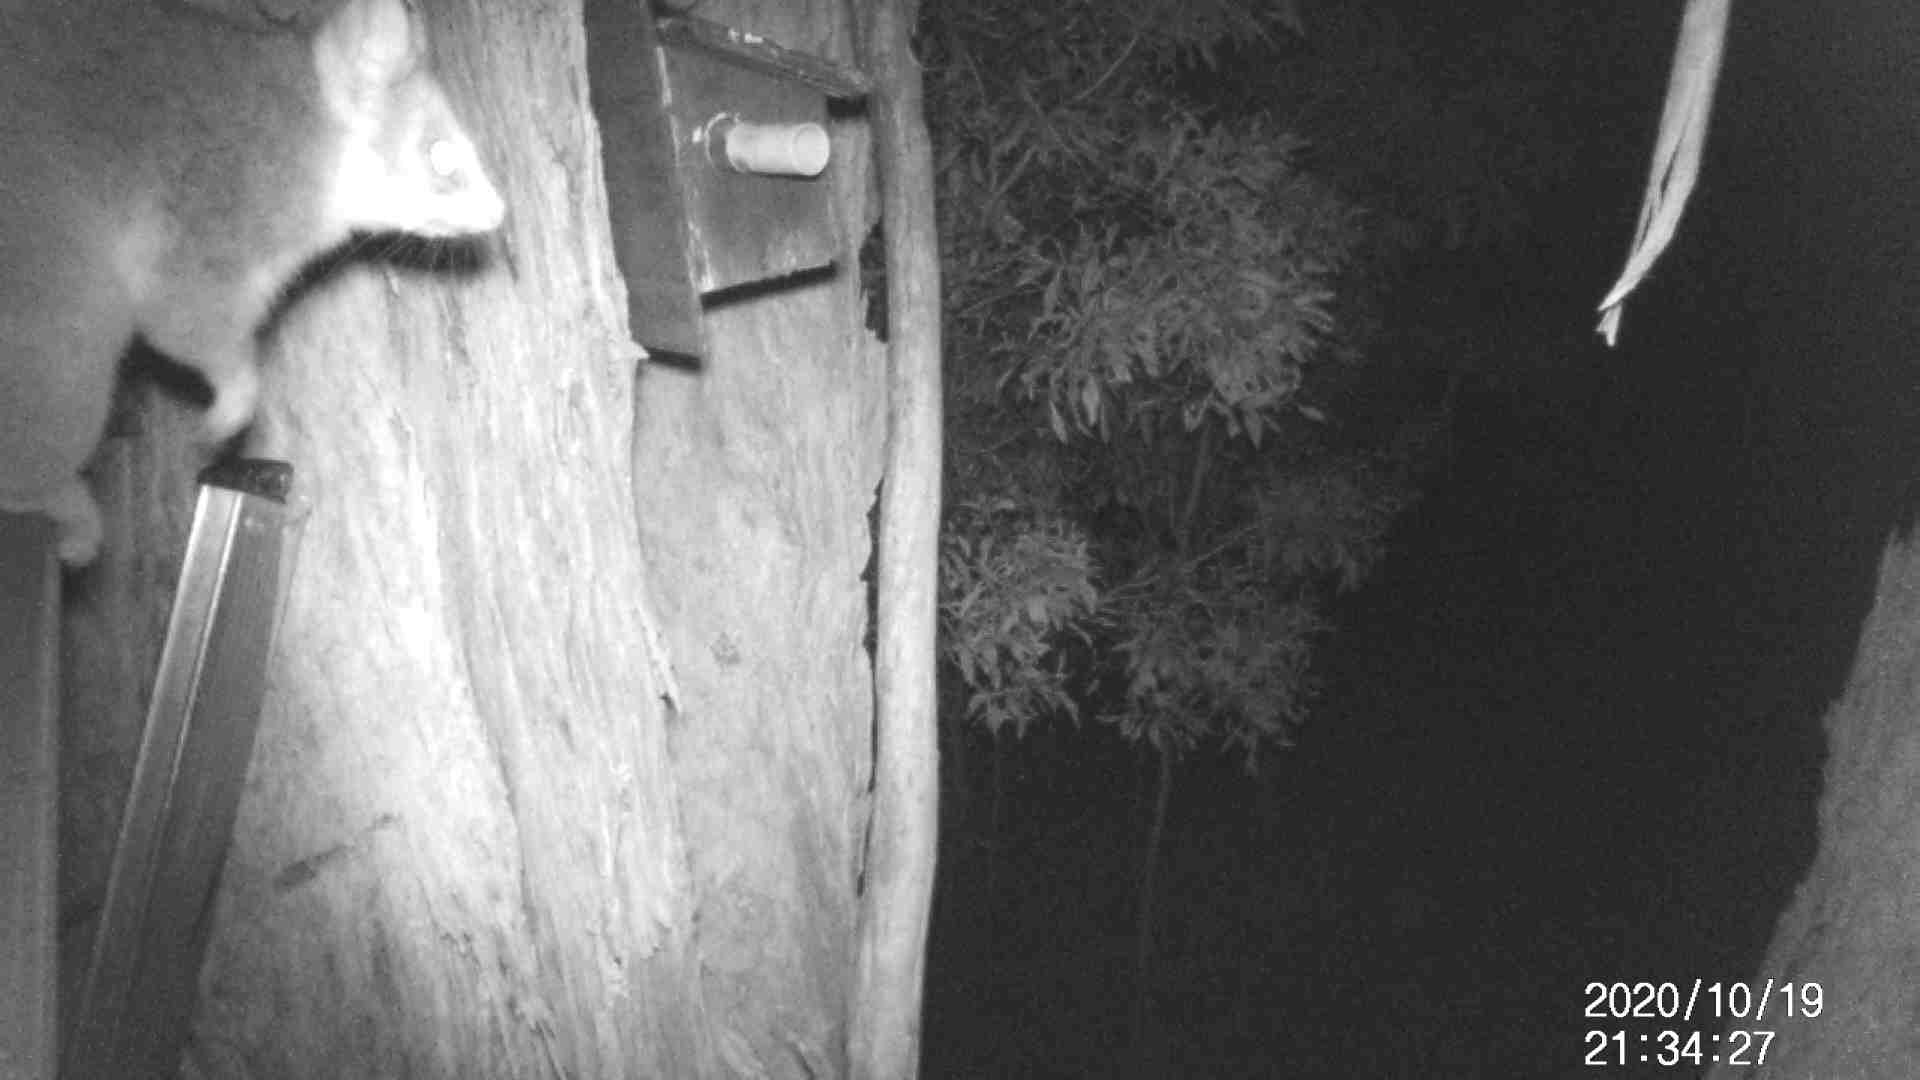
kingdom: Animalia
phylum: Chordata
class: Mammalia
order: Diprotodontia
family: Pseudocheiridae
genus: Pseudocheirus
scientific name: Pseudocheirus peregrinus
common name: Common ringtail possum
